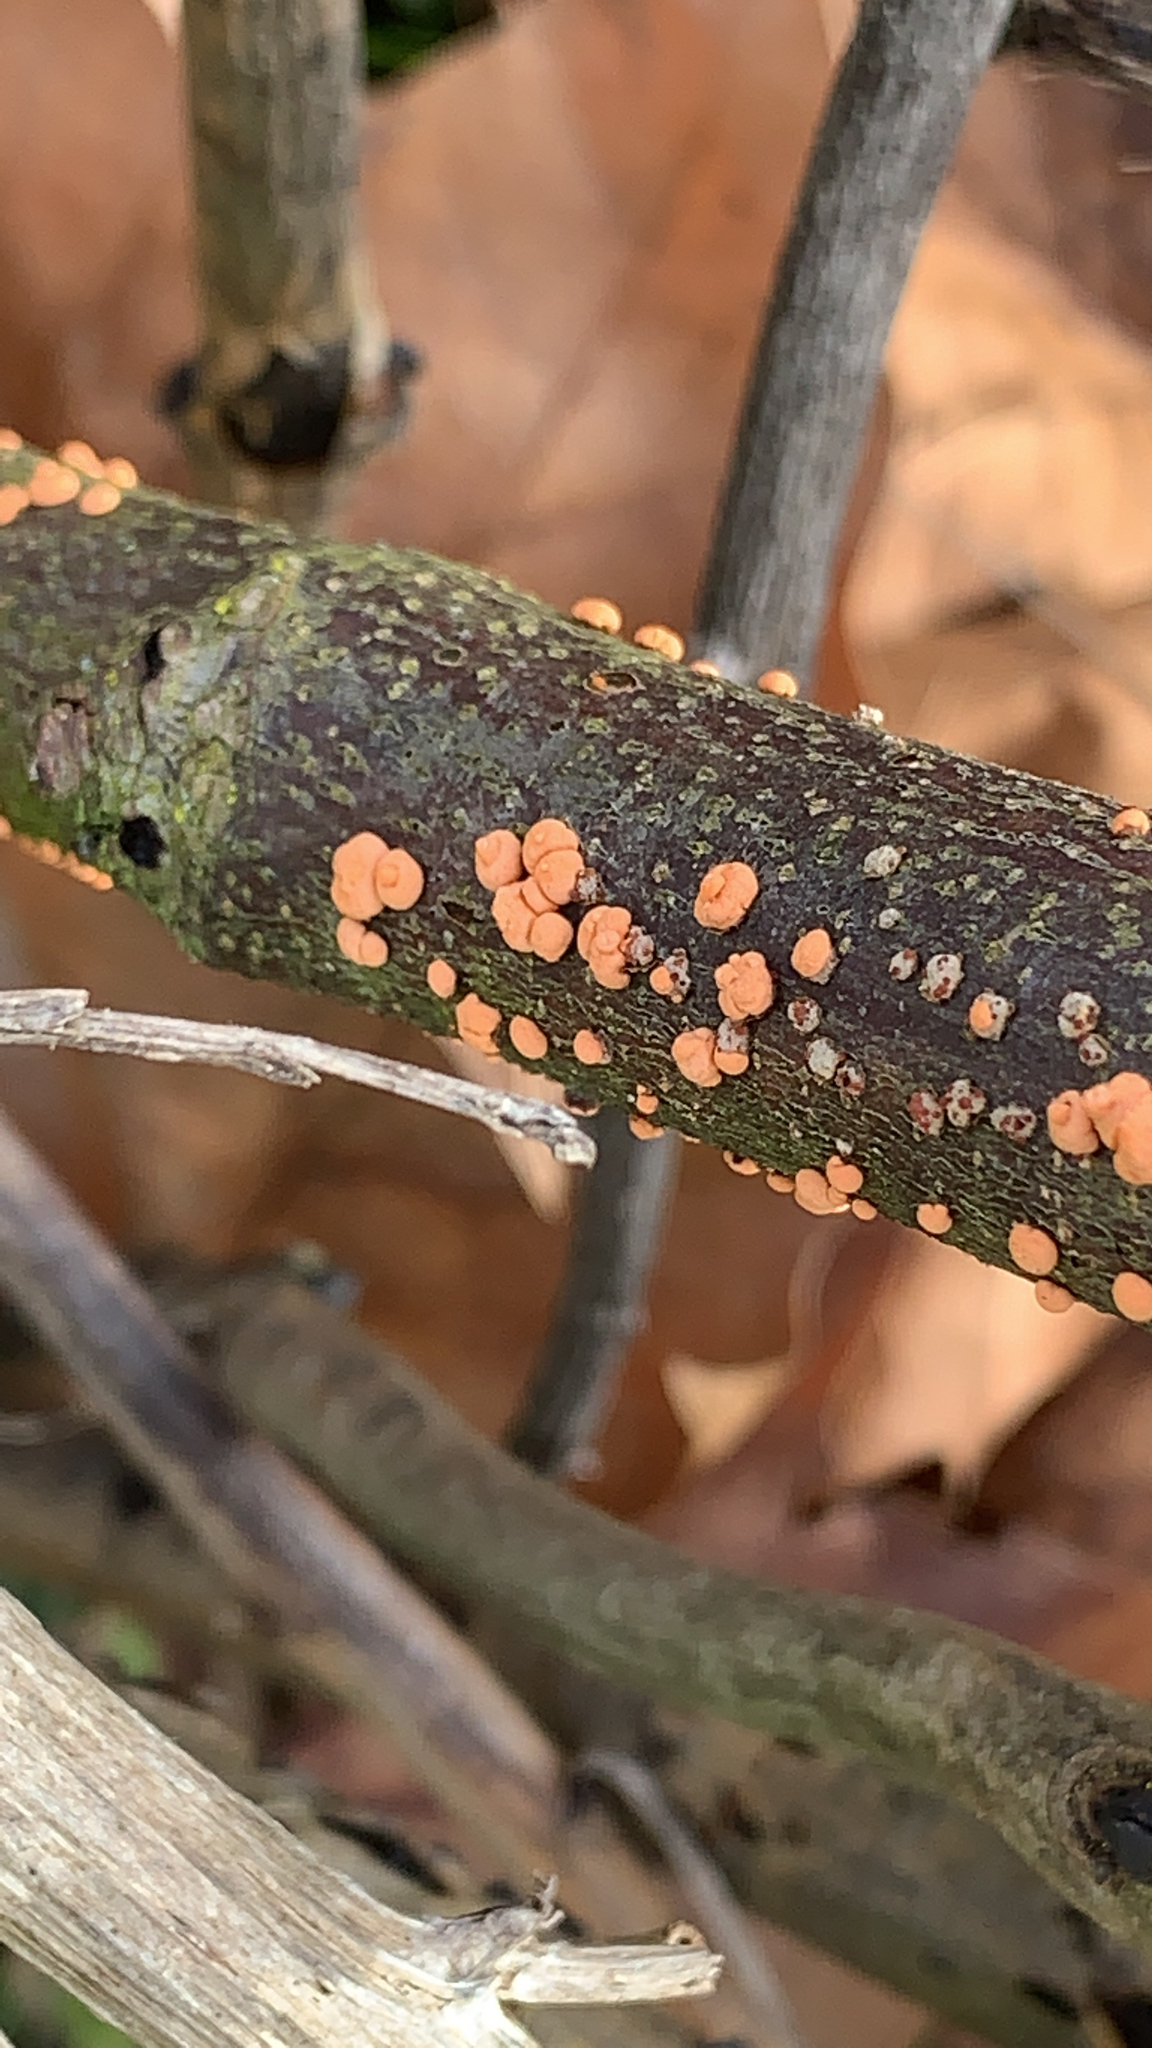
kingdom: Fungi
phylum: Ascomycota
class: Sordariomycetes
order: Hypocreales
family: Nectriaceae
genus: Nectria
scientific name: Nectria cinnabarina
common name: Coral spot
